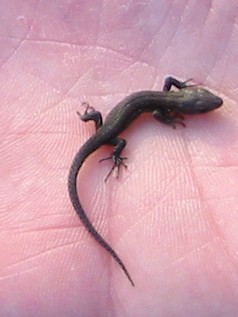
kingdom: Animalia
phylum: Chordata
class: Squamata
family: Lacertidae
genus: Zootoca
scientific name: Zootoca vivipara
